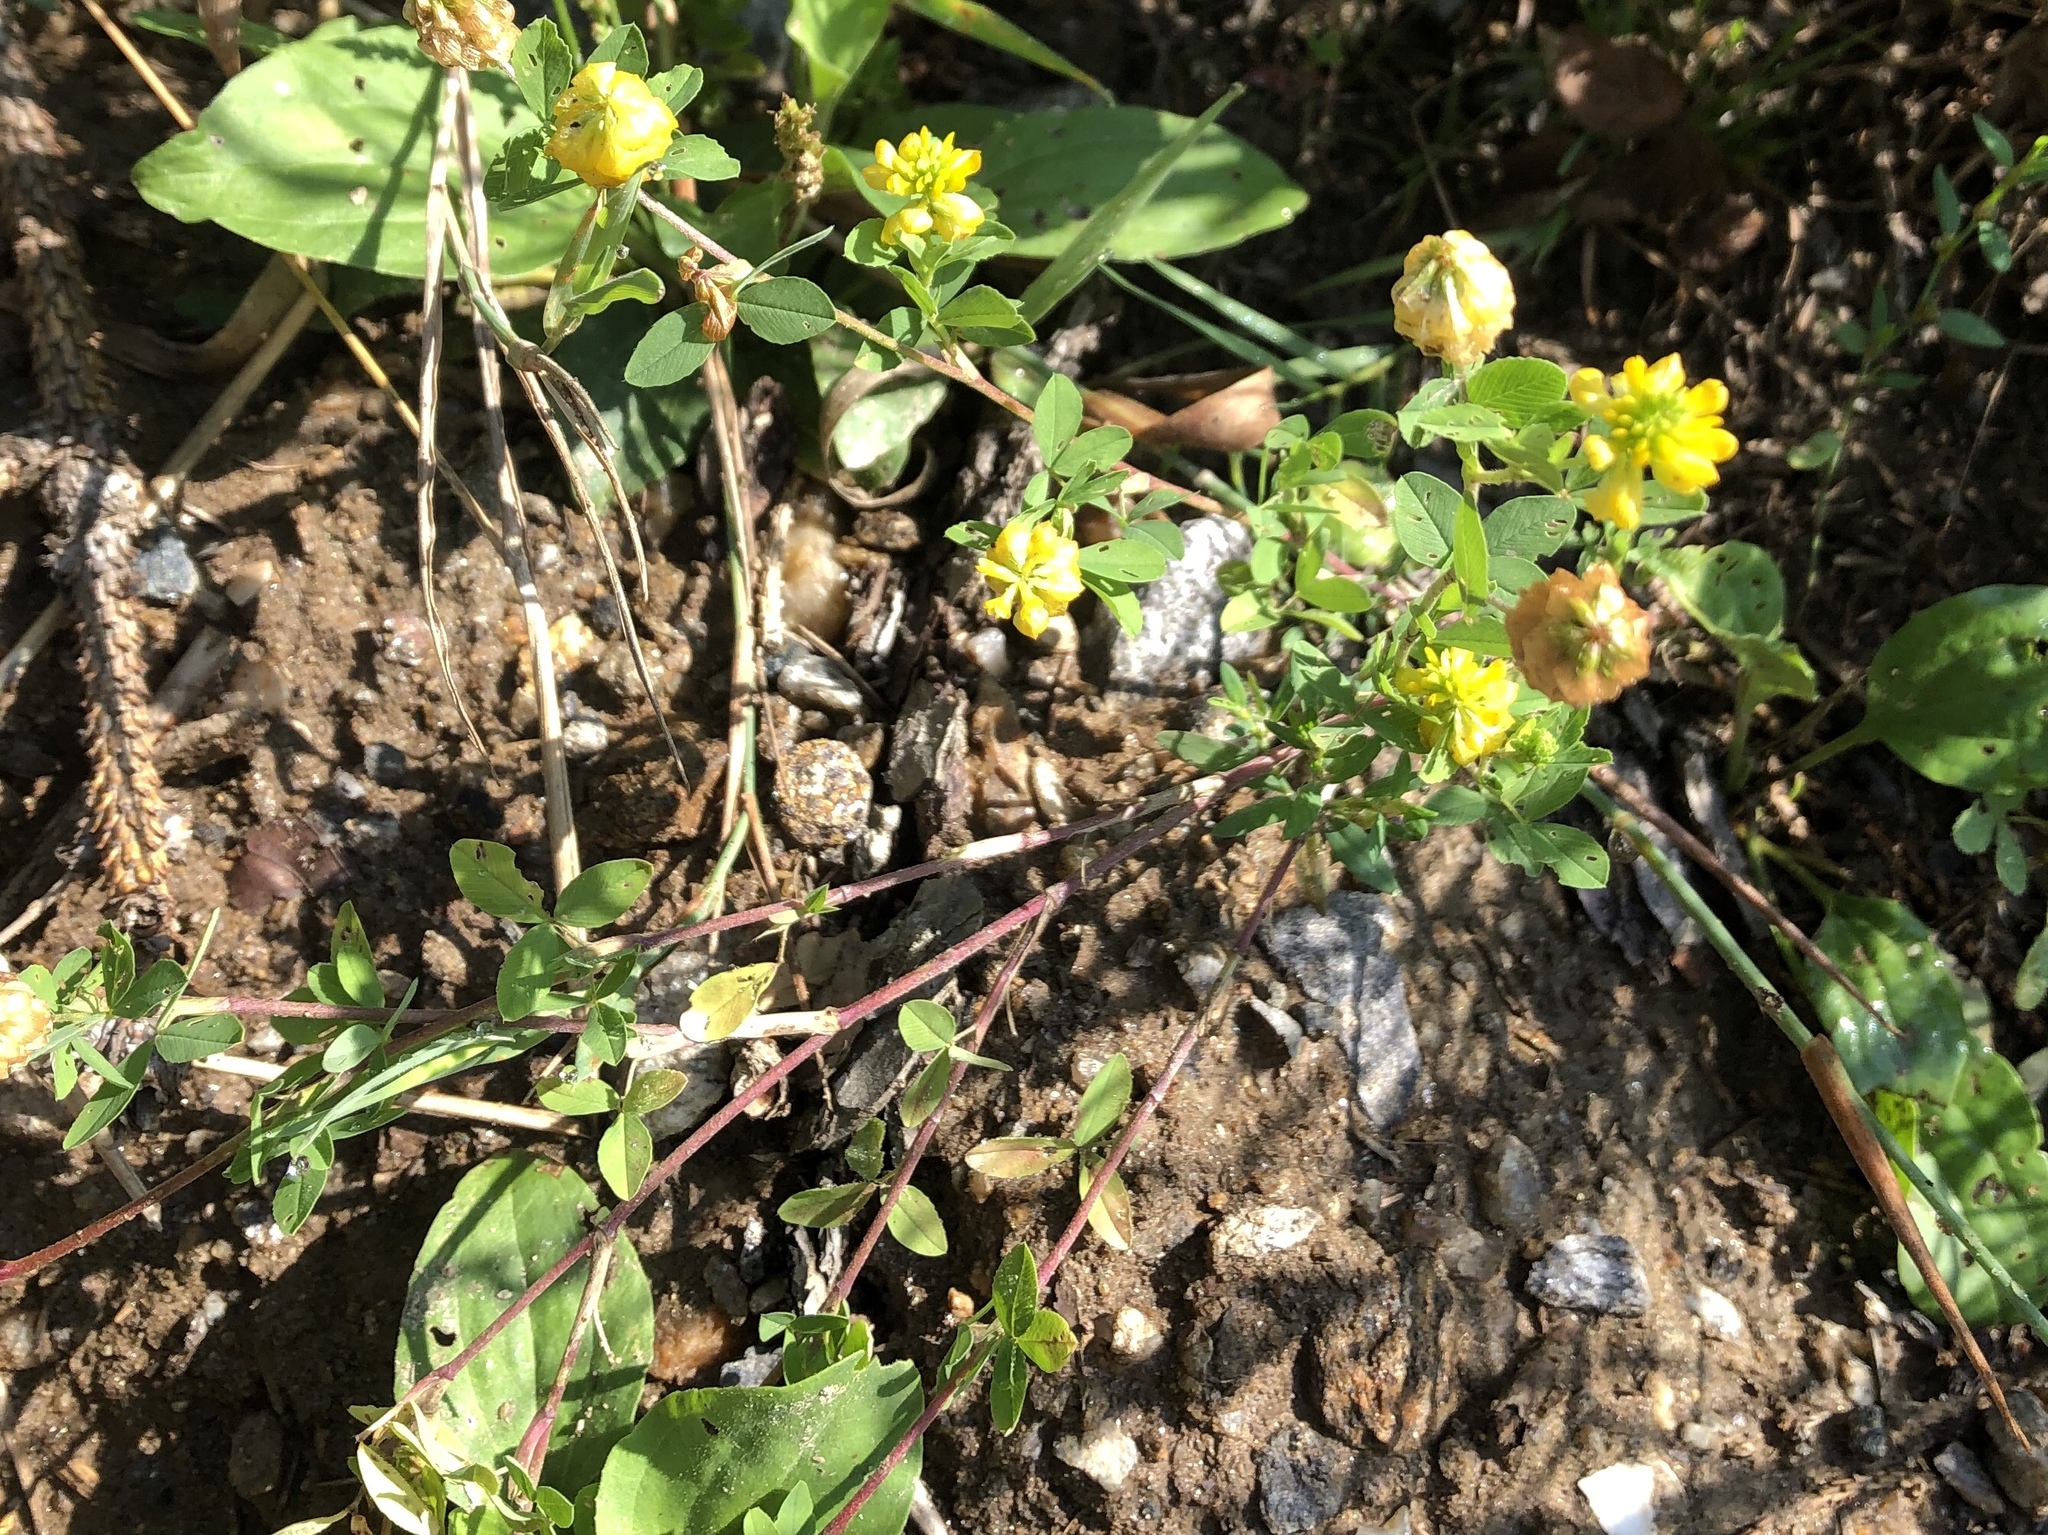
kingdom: Plantae
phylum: Tracheophyta
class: Magnoliopsida
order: Fabales
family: Fabaceae
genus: Trifolium
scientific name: Trifolium aureum
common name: Golden clover
